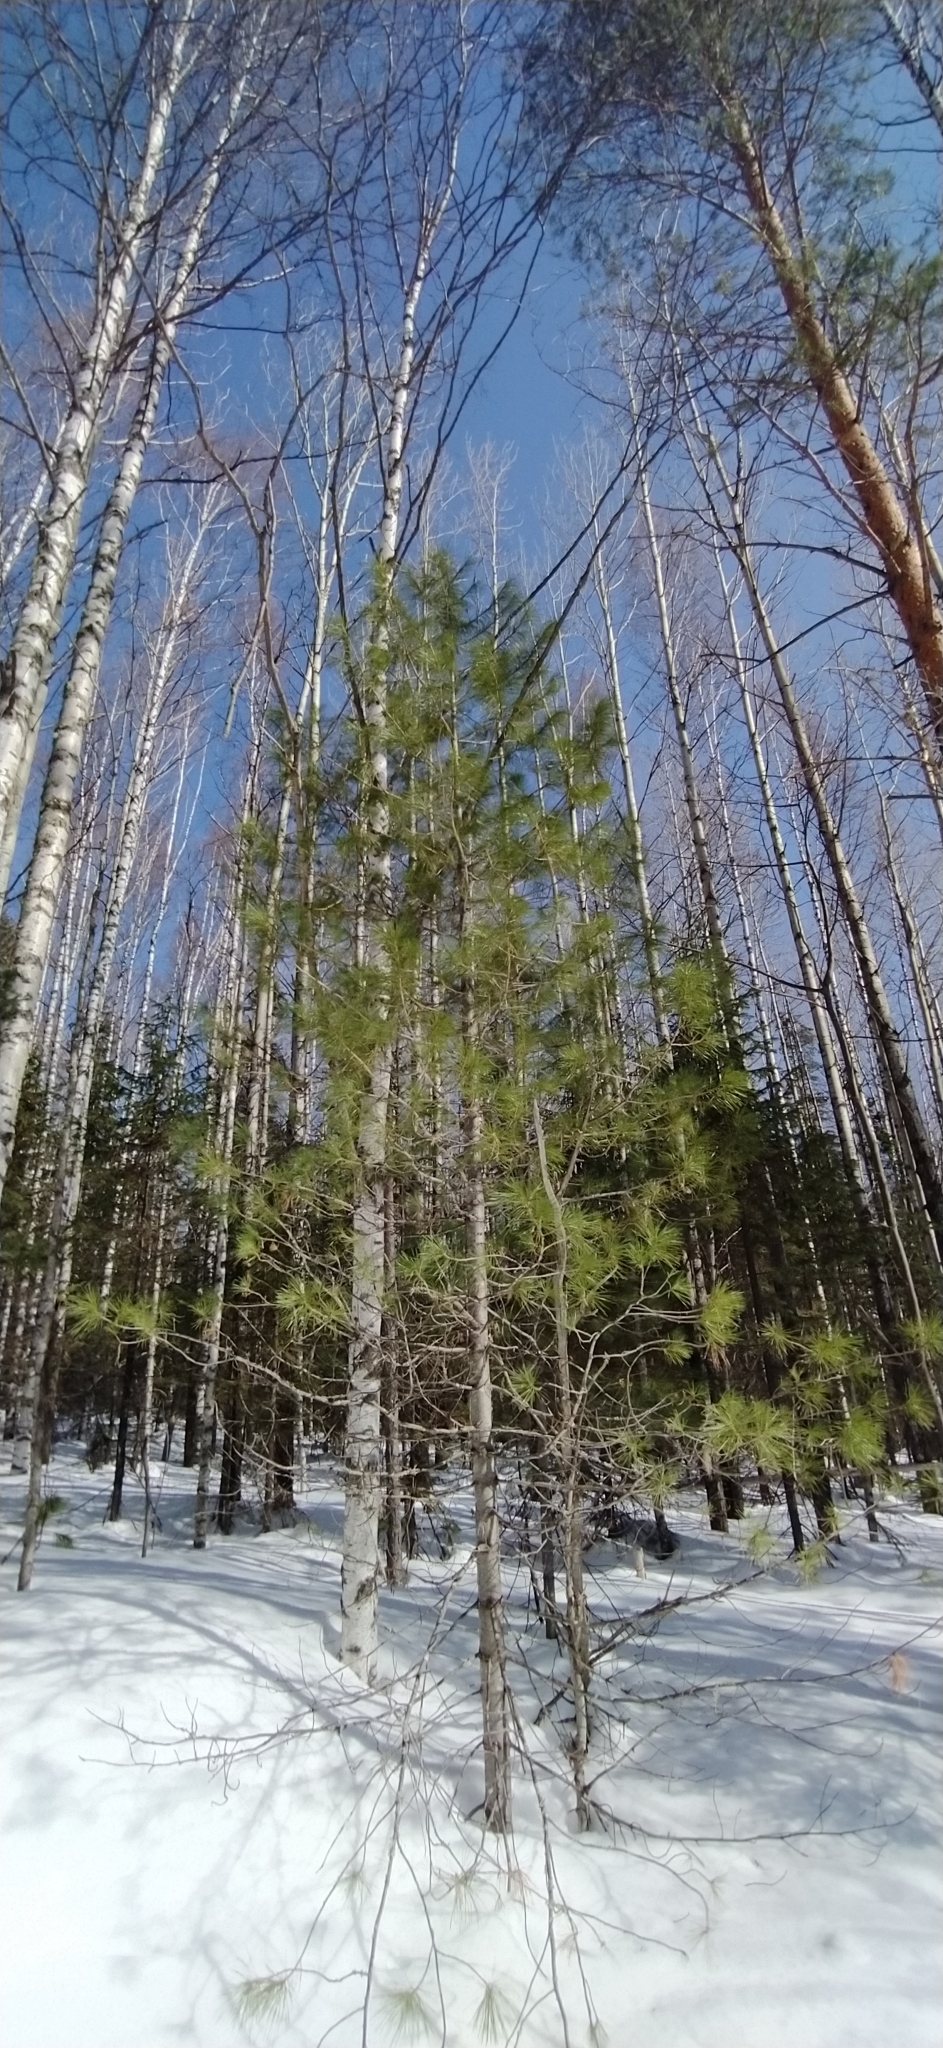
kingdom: Plantae
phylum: Tracheophyta
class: Pinopsida
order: Pinales
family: Pinaceae
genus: Pinus
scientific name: Pinus sibirica
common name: Siberian pine
